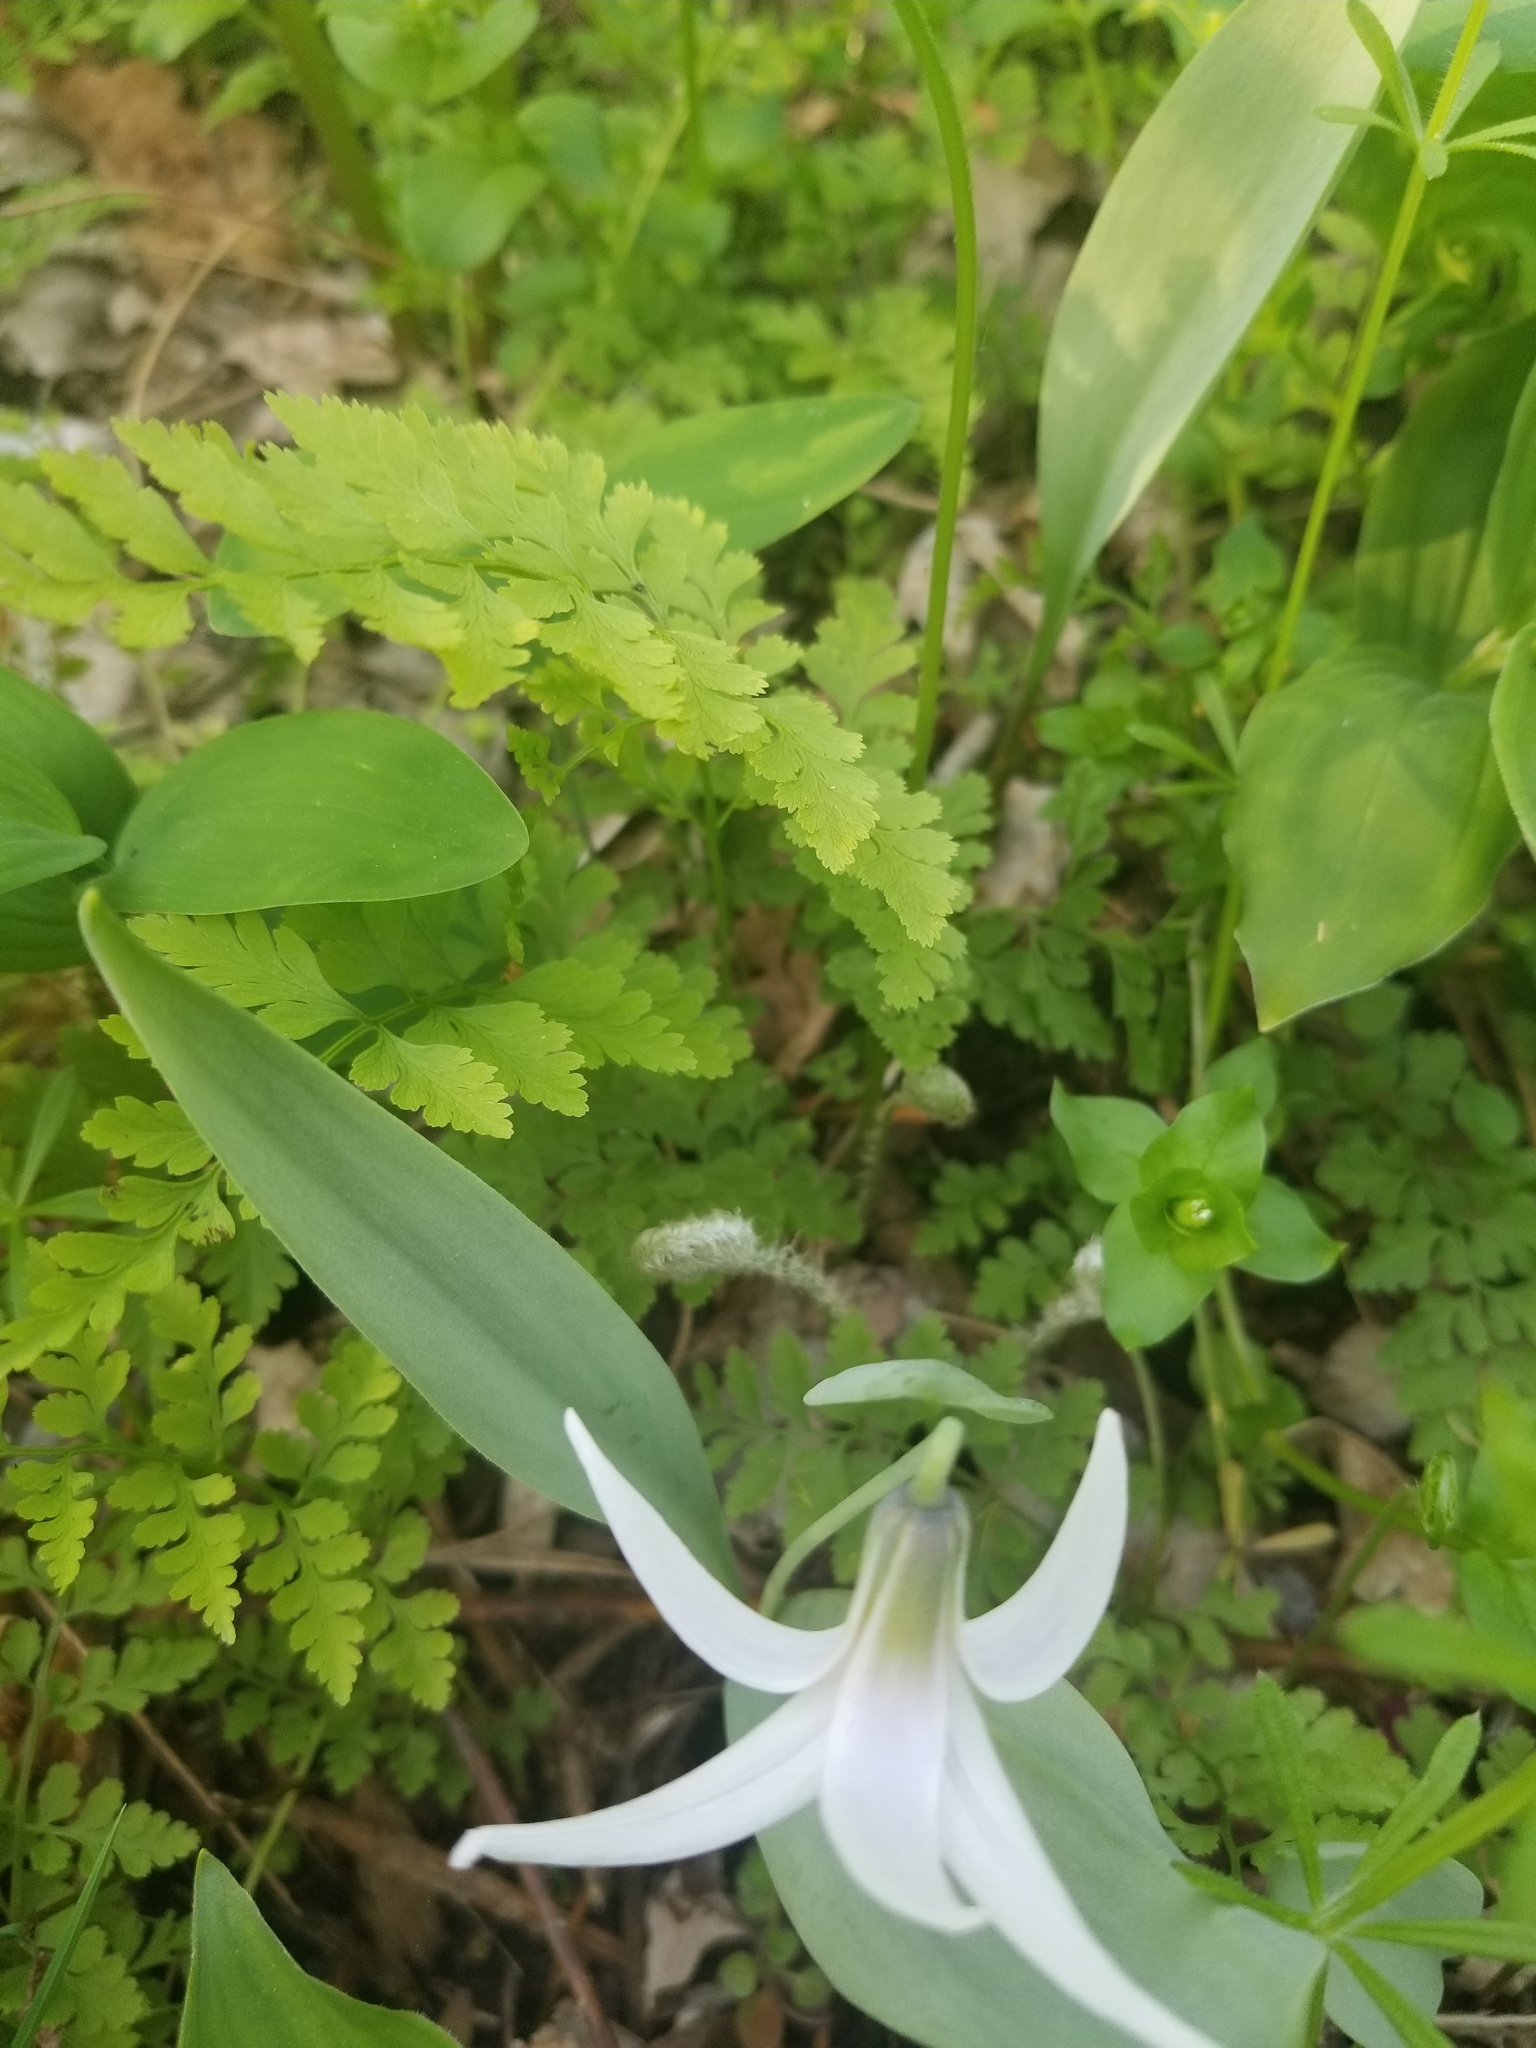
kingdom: Plantae
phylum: Tracheophyta
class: Liliopsida
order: Liliales
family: Liliaceae
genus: Erythronium
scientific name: Erythronium albidum
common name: White trout-lily
